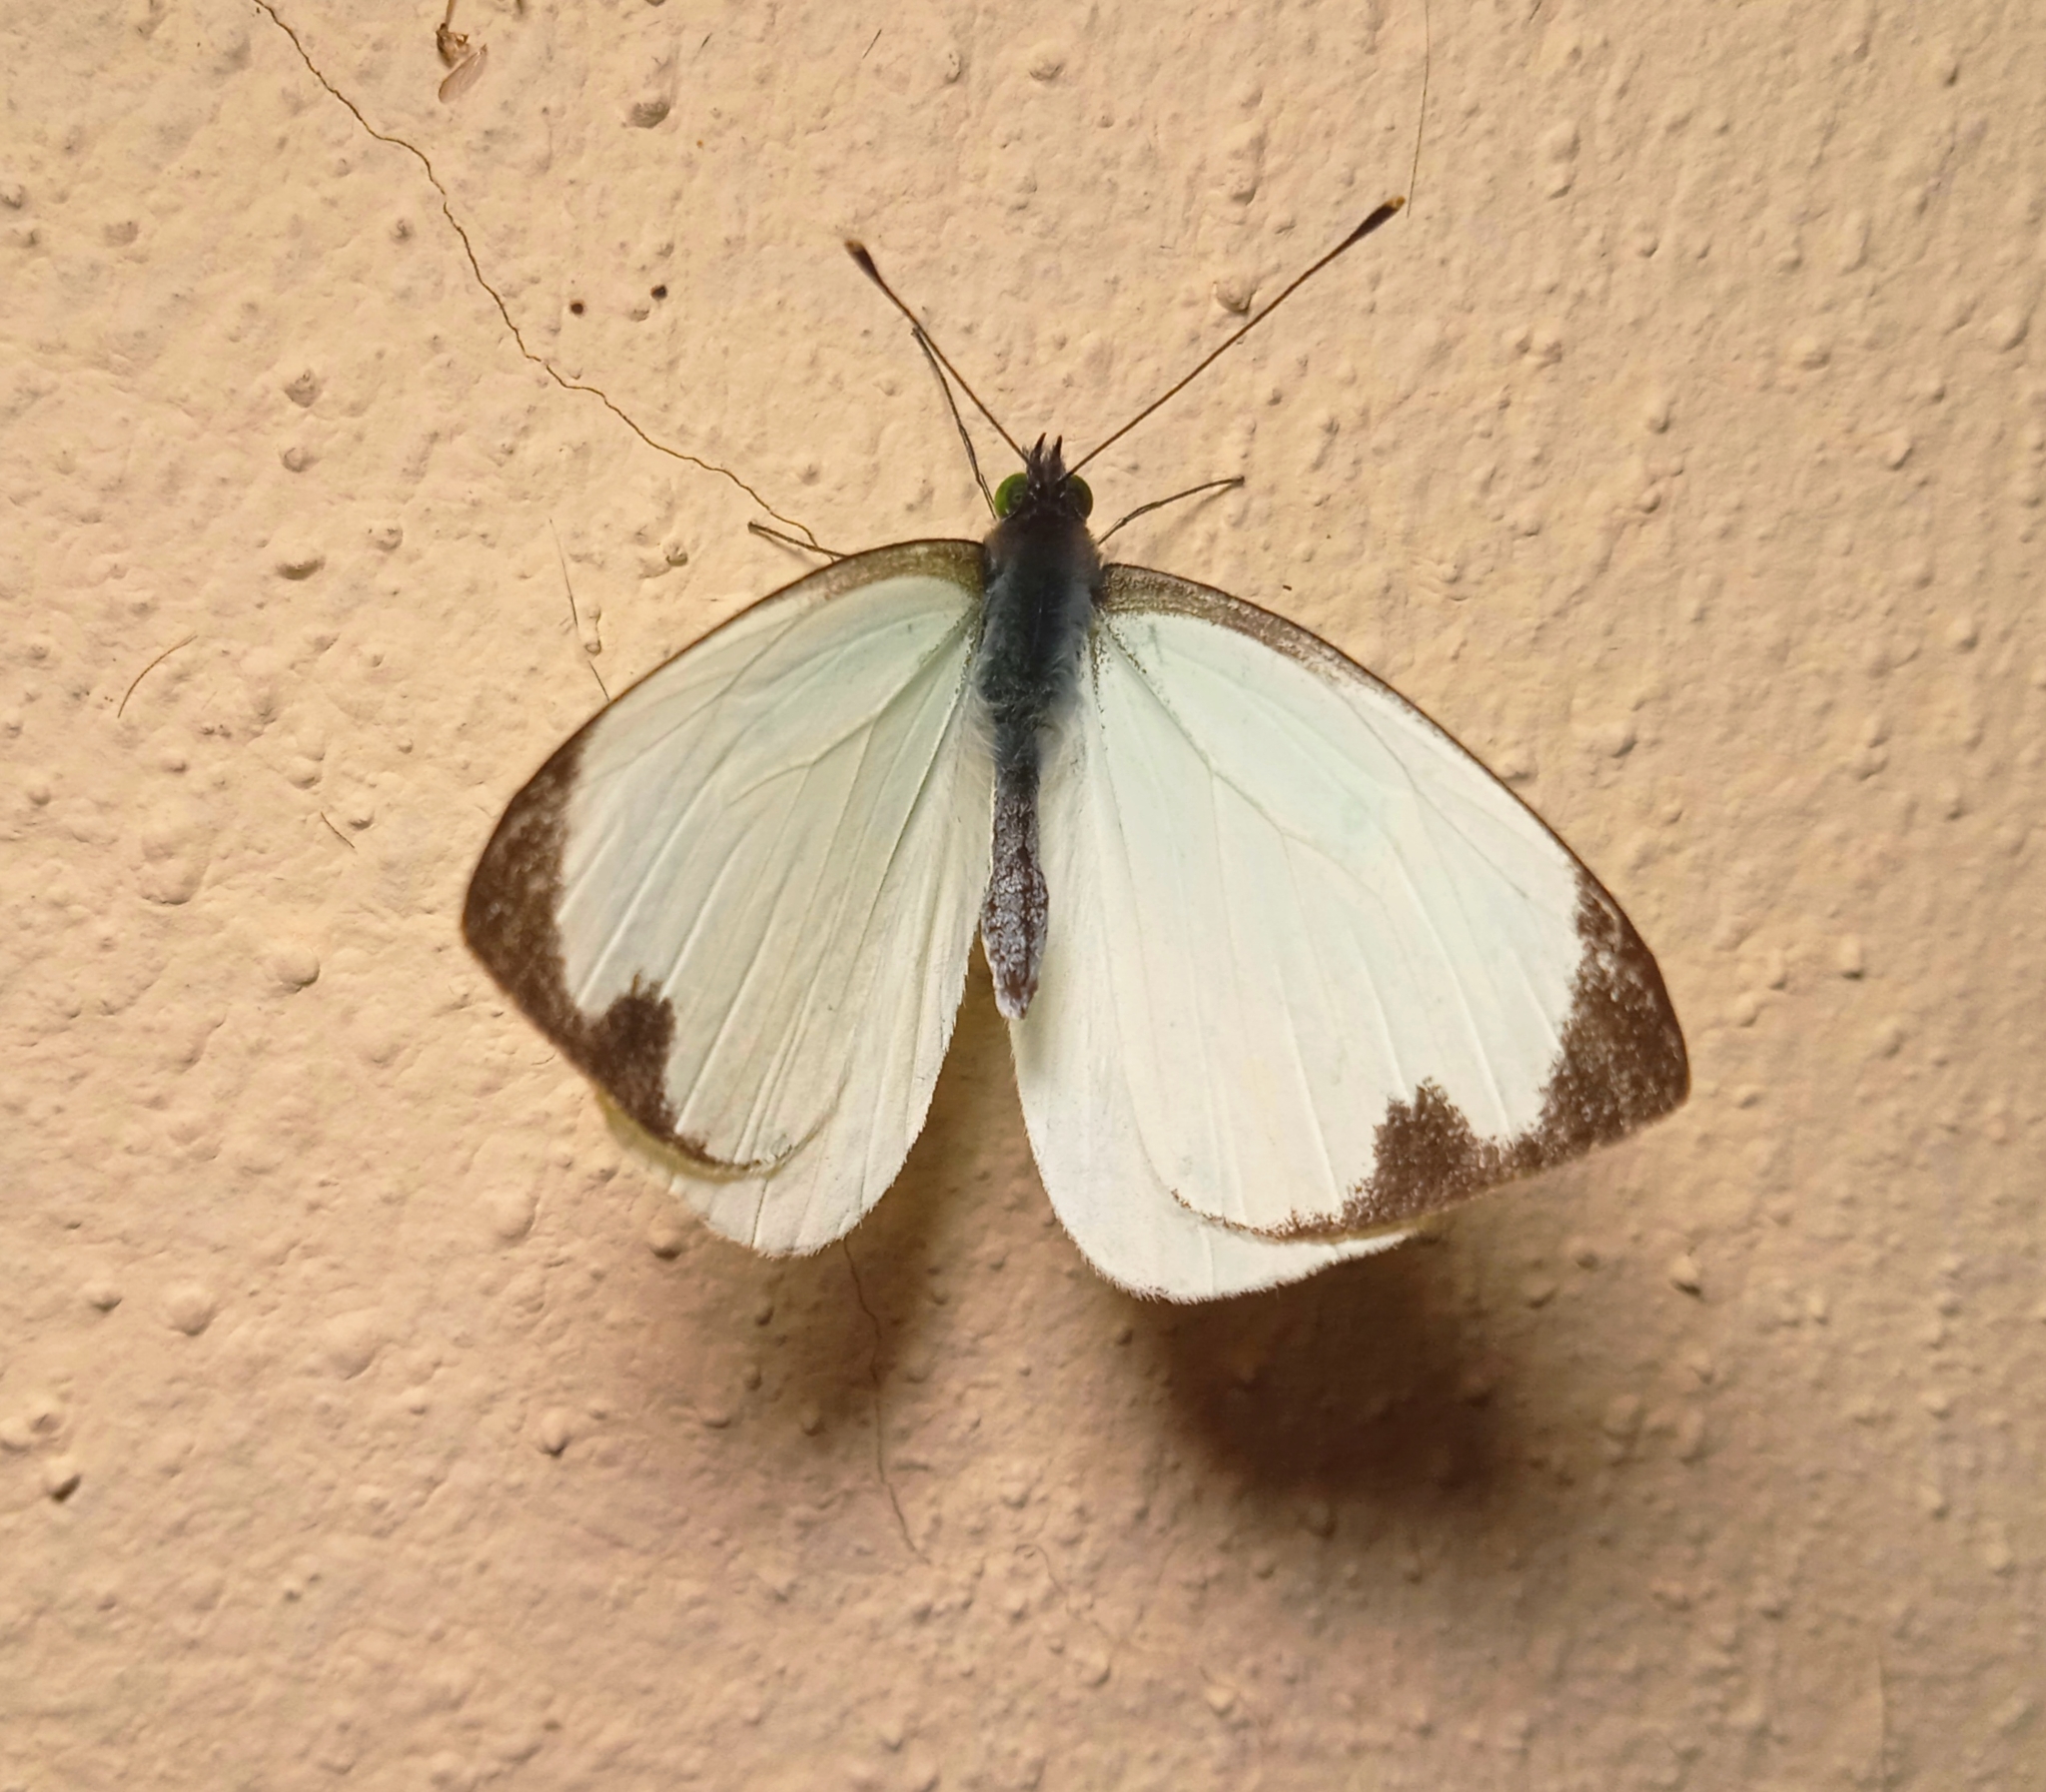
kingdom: Animalia
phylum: Arthropoda
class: Insecta
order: Lepidoptera
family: Pieridae
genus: Leptophobia
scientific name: Leptophobia aripa
